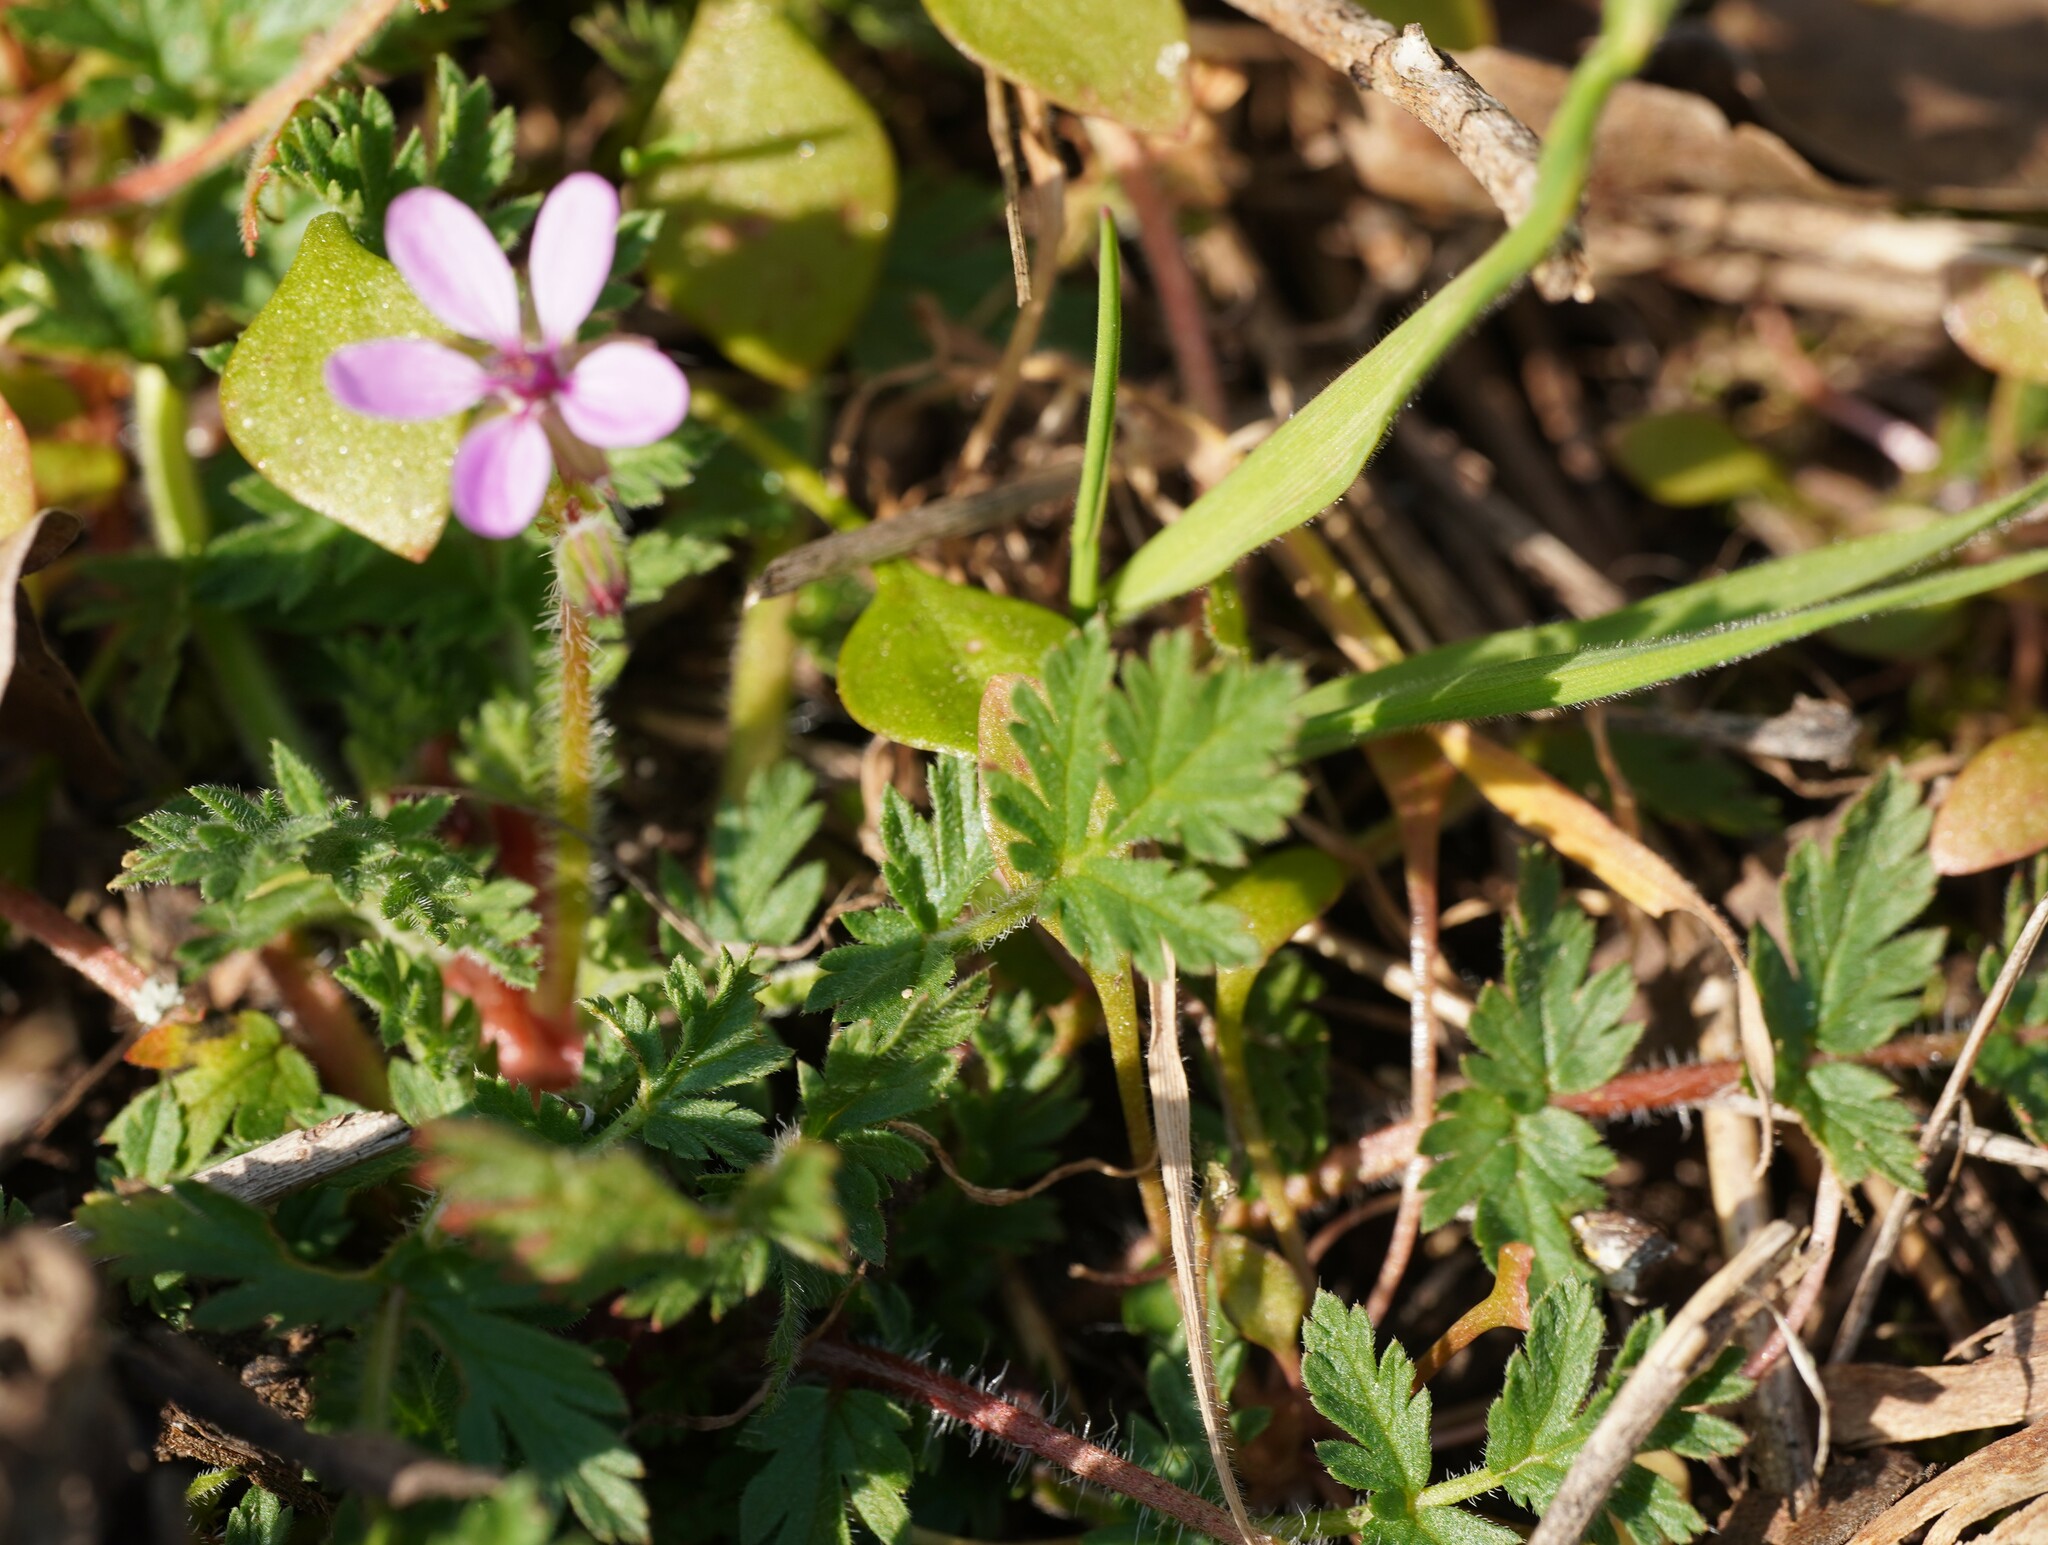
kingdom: Plantae
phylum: Tracheophyta
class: Magnoliopsida
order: Geraniales
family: Geraniaceae
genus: Erodium
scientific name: Erodium cicutarium
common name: Common stork's-bill
